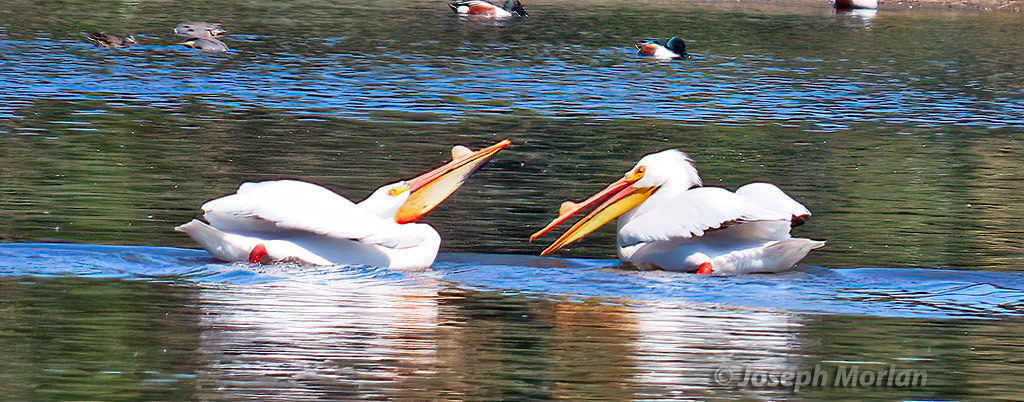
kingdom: Animalia
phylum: Chordata
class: Aves
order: Pelecaniformes
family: Pelecanidae
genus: Pelecanus
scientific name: Pelecanus erythrorhynchos
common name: American white pelican
